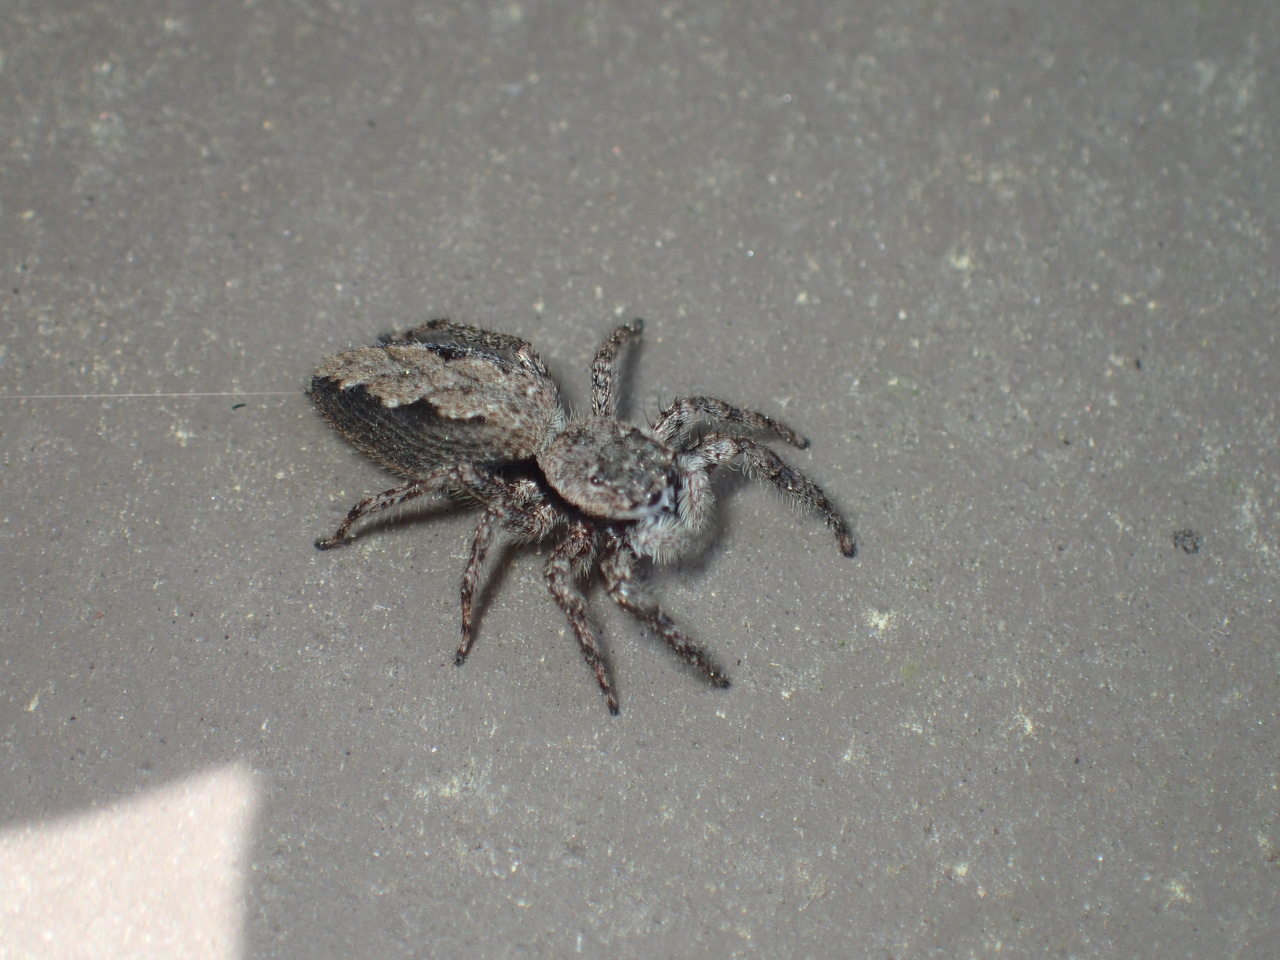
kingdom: Animalia
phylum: Arthropoda
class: Arachnida
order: Araneae
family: Salticidae
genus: Platycryptus
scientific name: Platycryptus undatus
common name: Tan jumping spider
